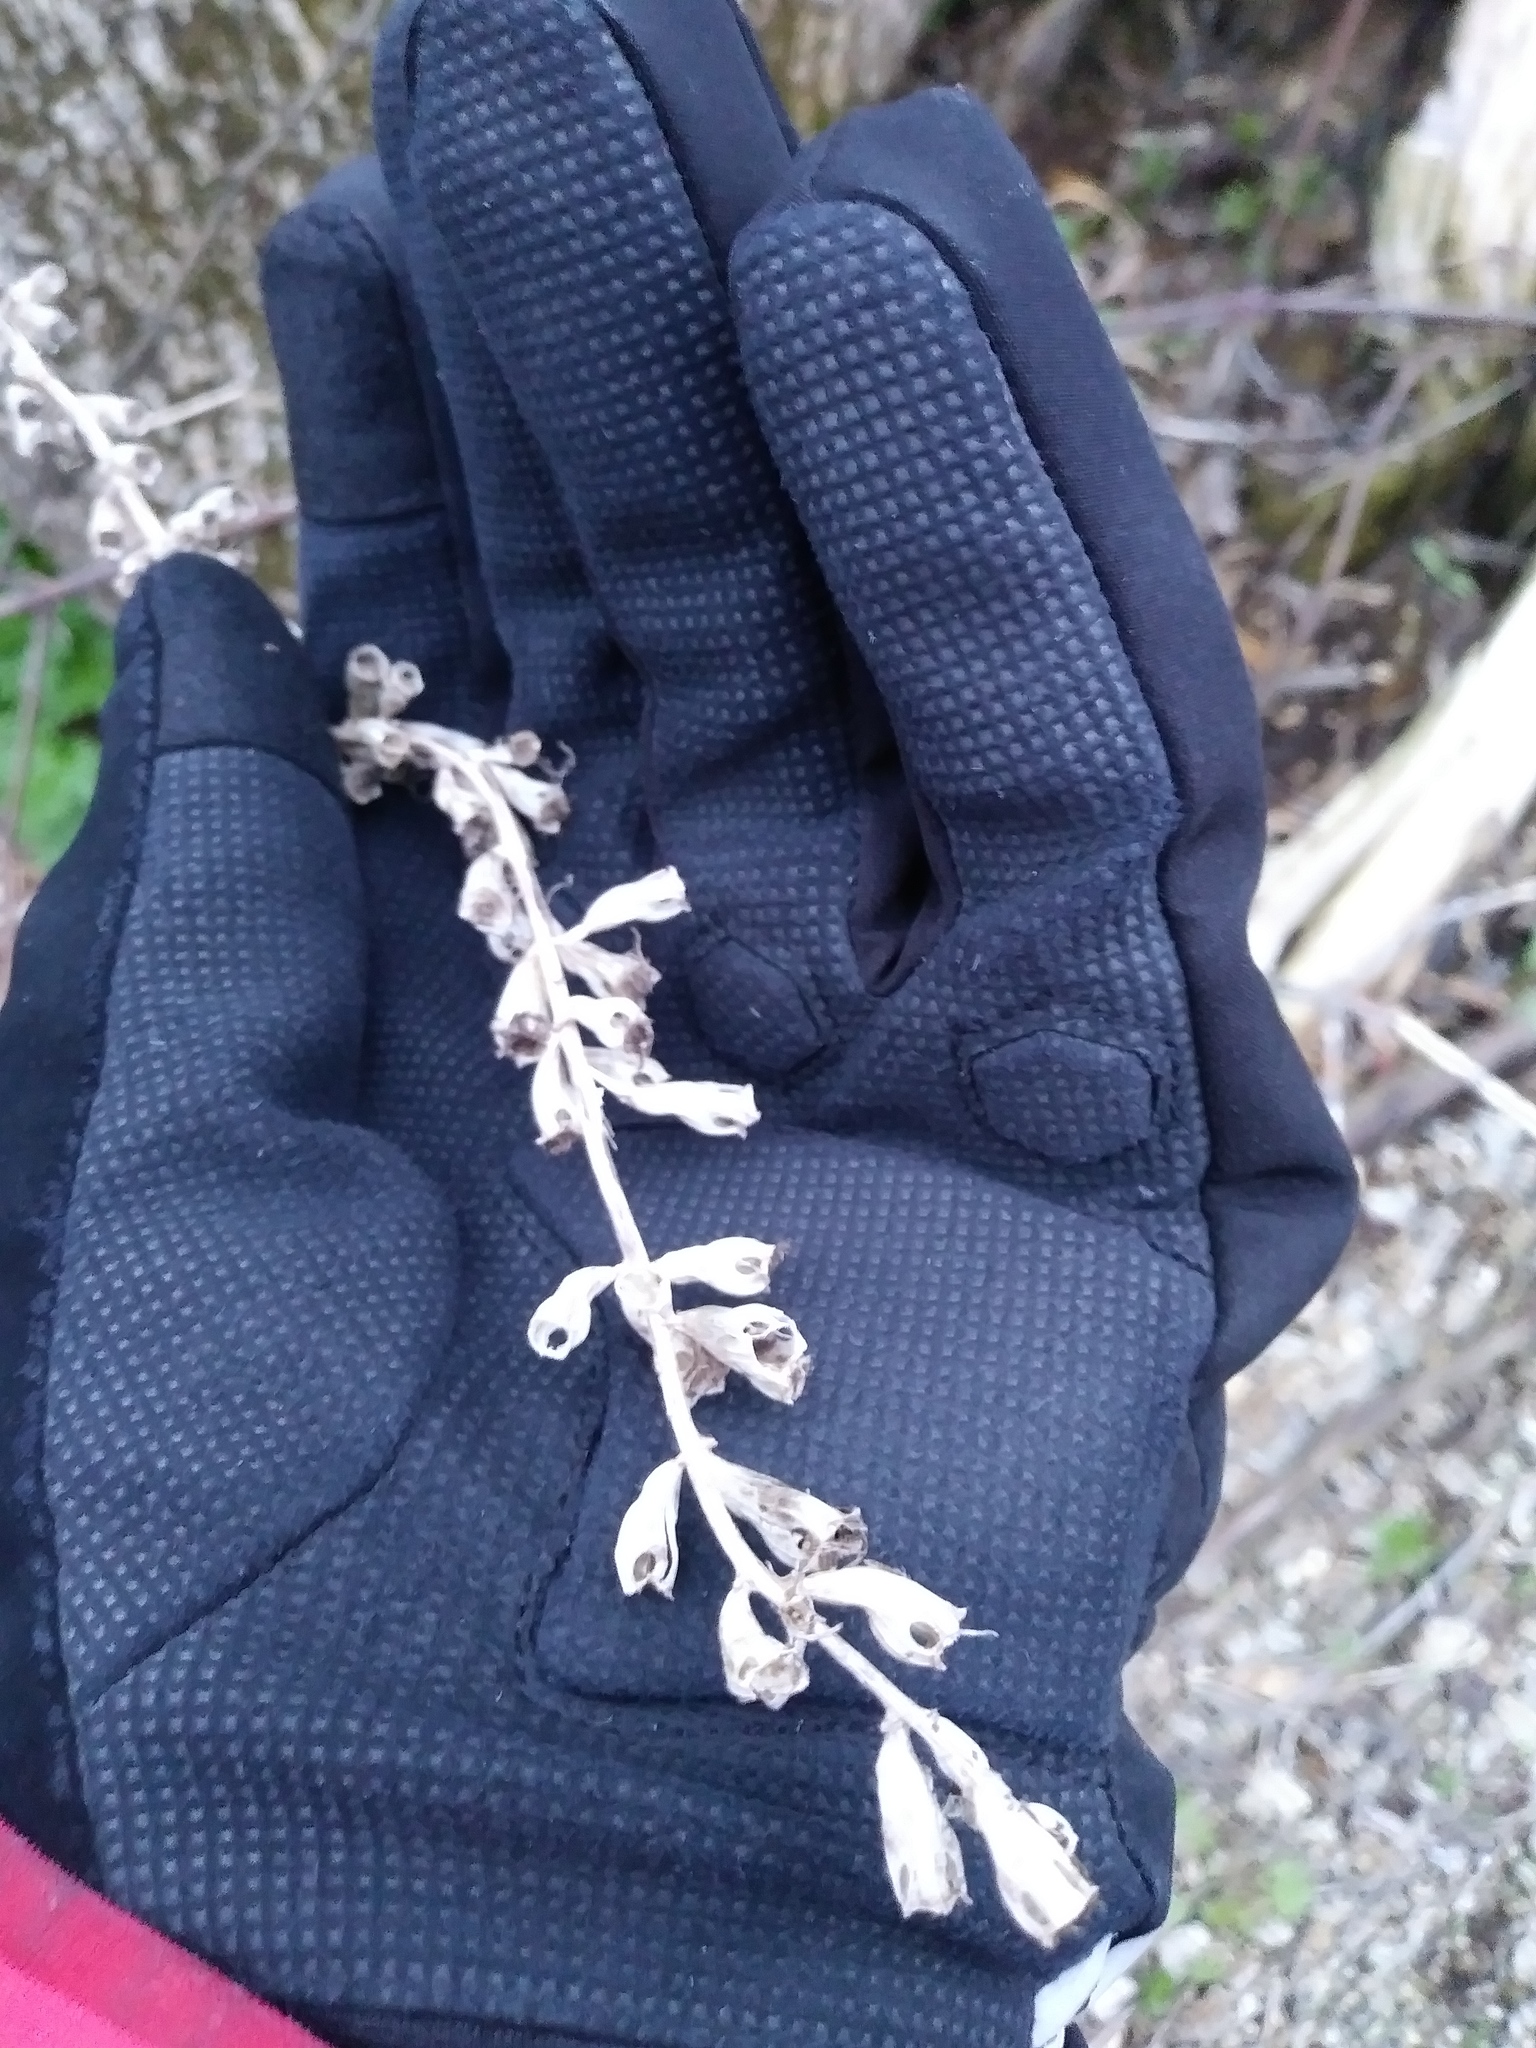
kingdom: Plantae
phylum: Tracheophyta
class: Magnoliopsida
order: Asterales
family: Campanulaceae
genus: Campanulastrum
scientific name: Campanulastrum americanum
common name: American bellflower
